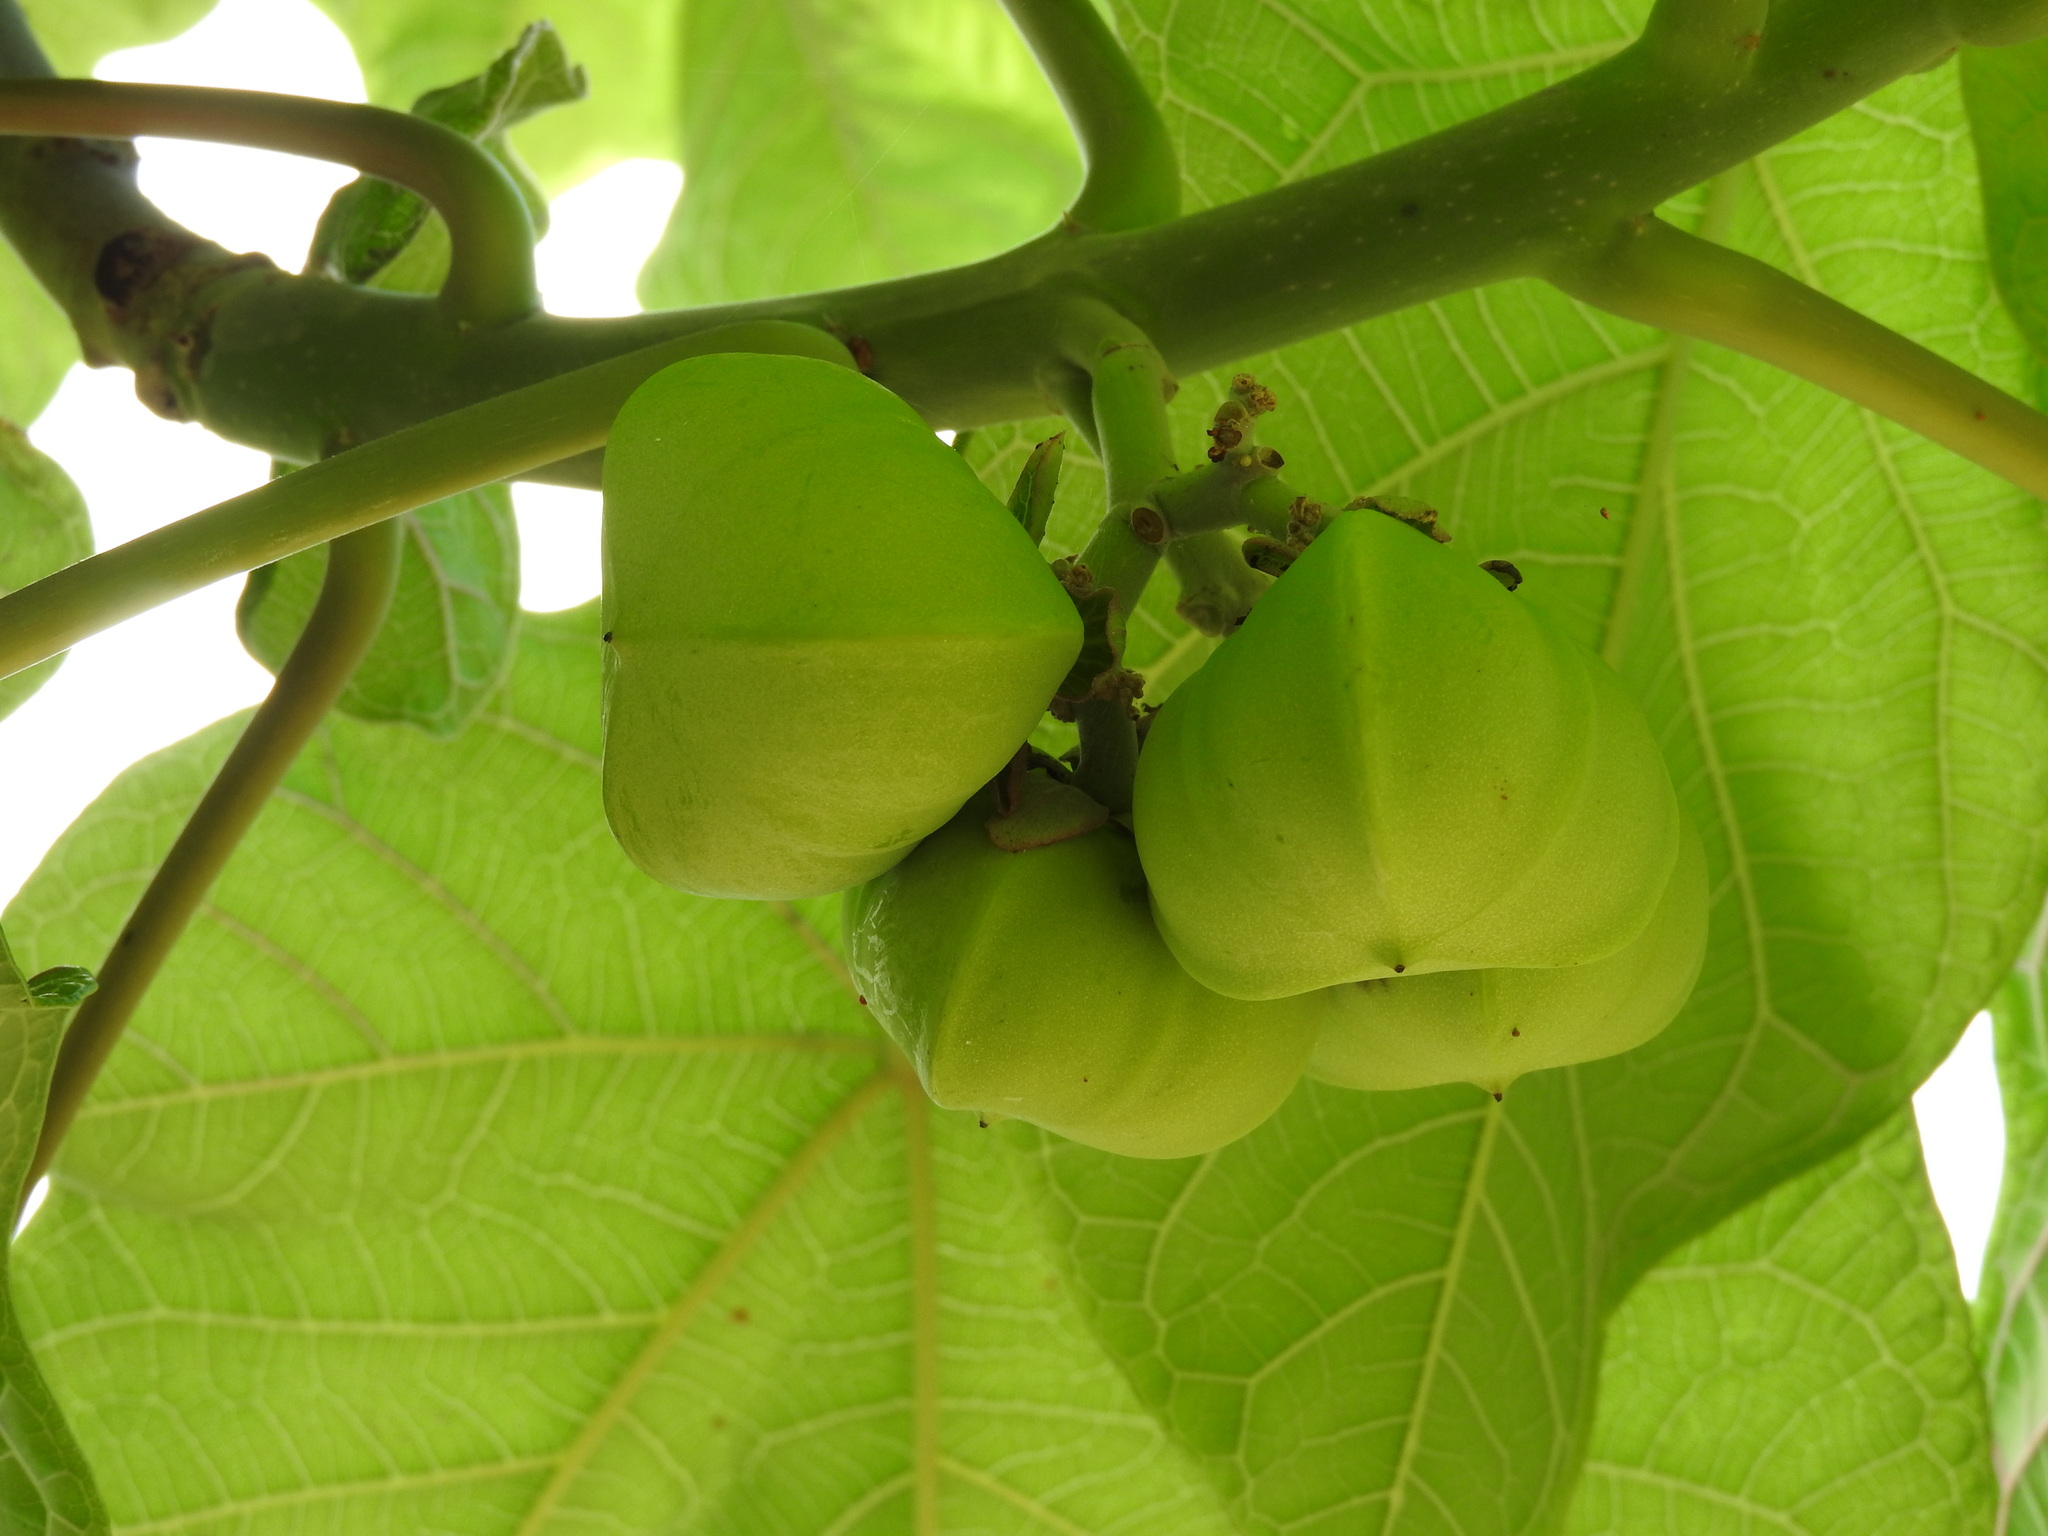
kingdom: Plantae
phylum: Tracheophyta
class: Magnoliopsida
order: Malpighiales
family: Euphorbiaceae
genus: Jatropha
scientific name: Jatropha peltata
